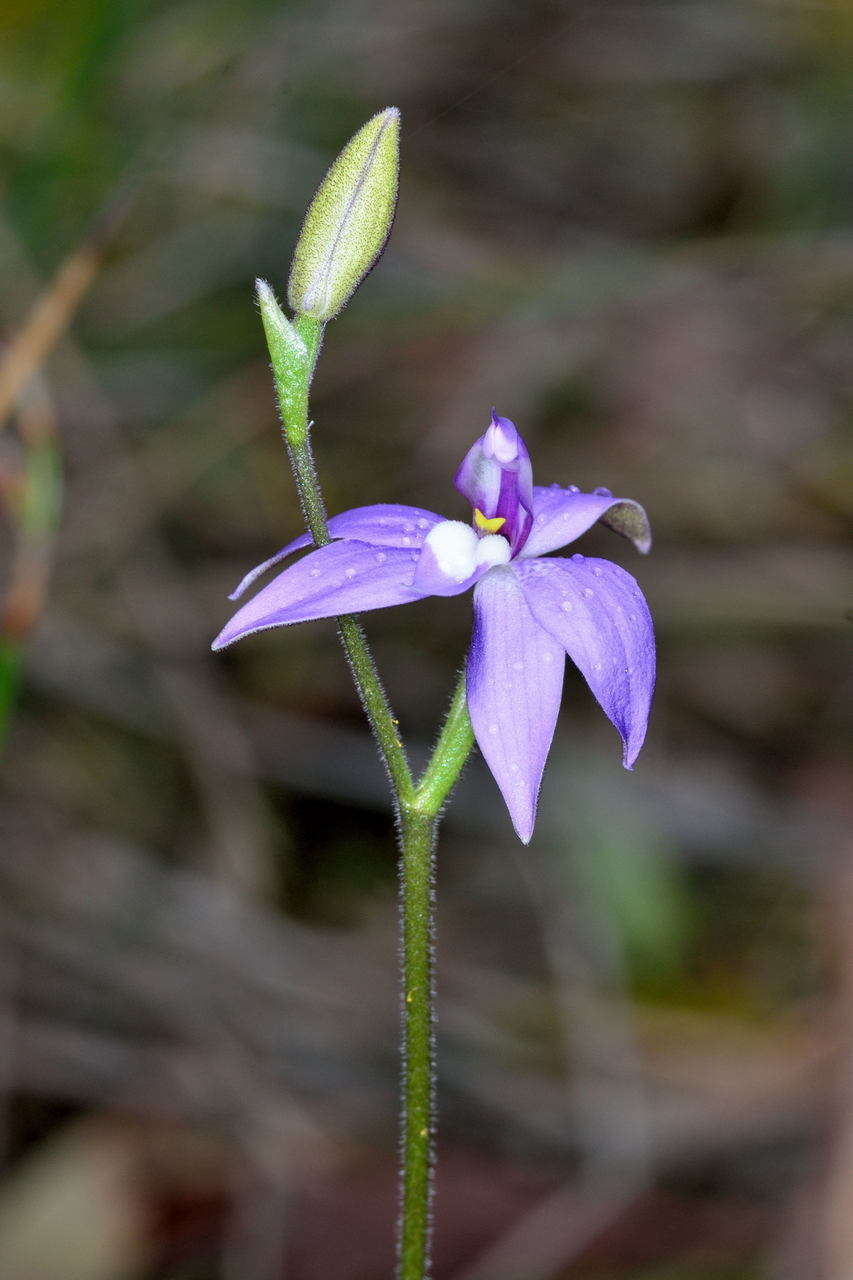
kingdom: Plantae
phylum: Tracheophyta
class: Liliopsida
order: Asparagales
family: Orchidaceae
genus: Caladenia
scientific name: Caladenia major
